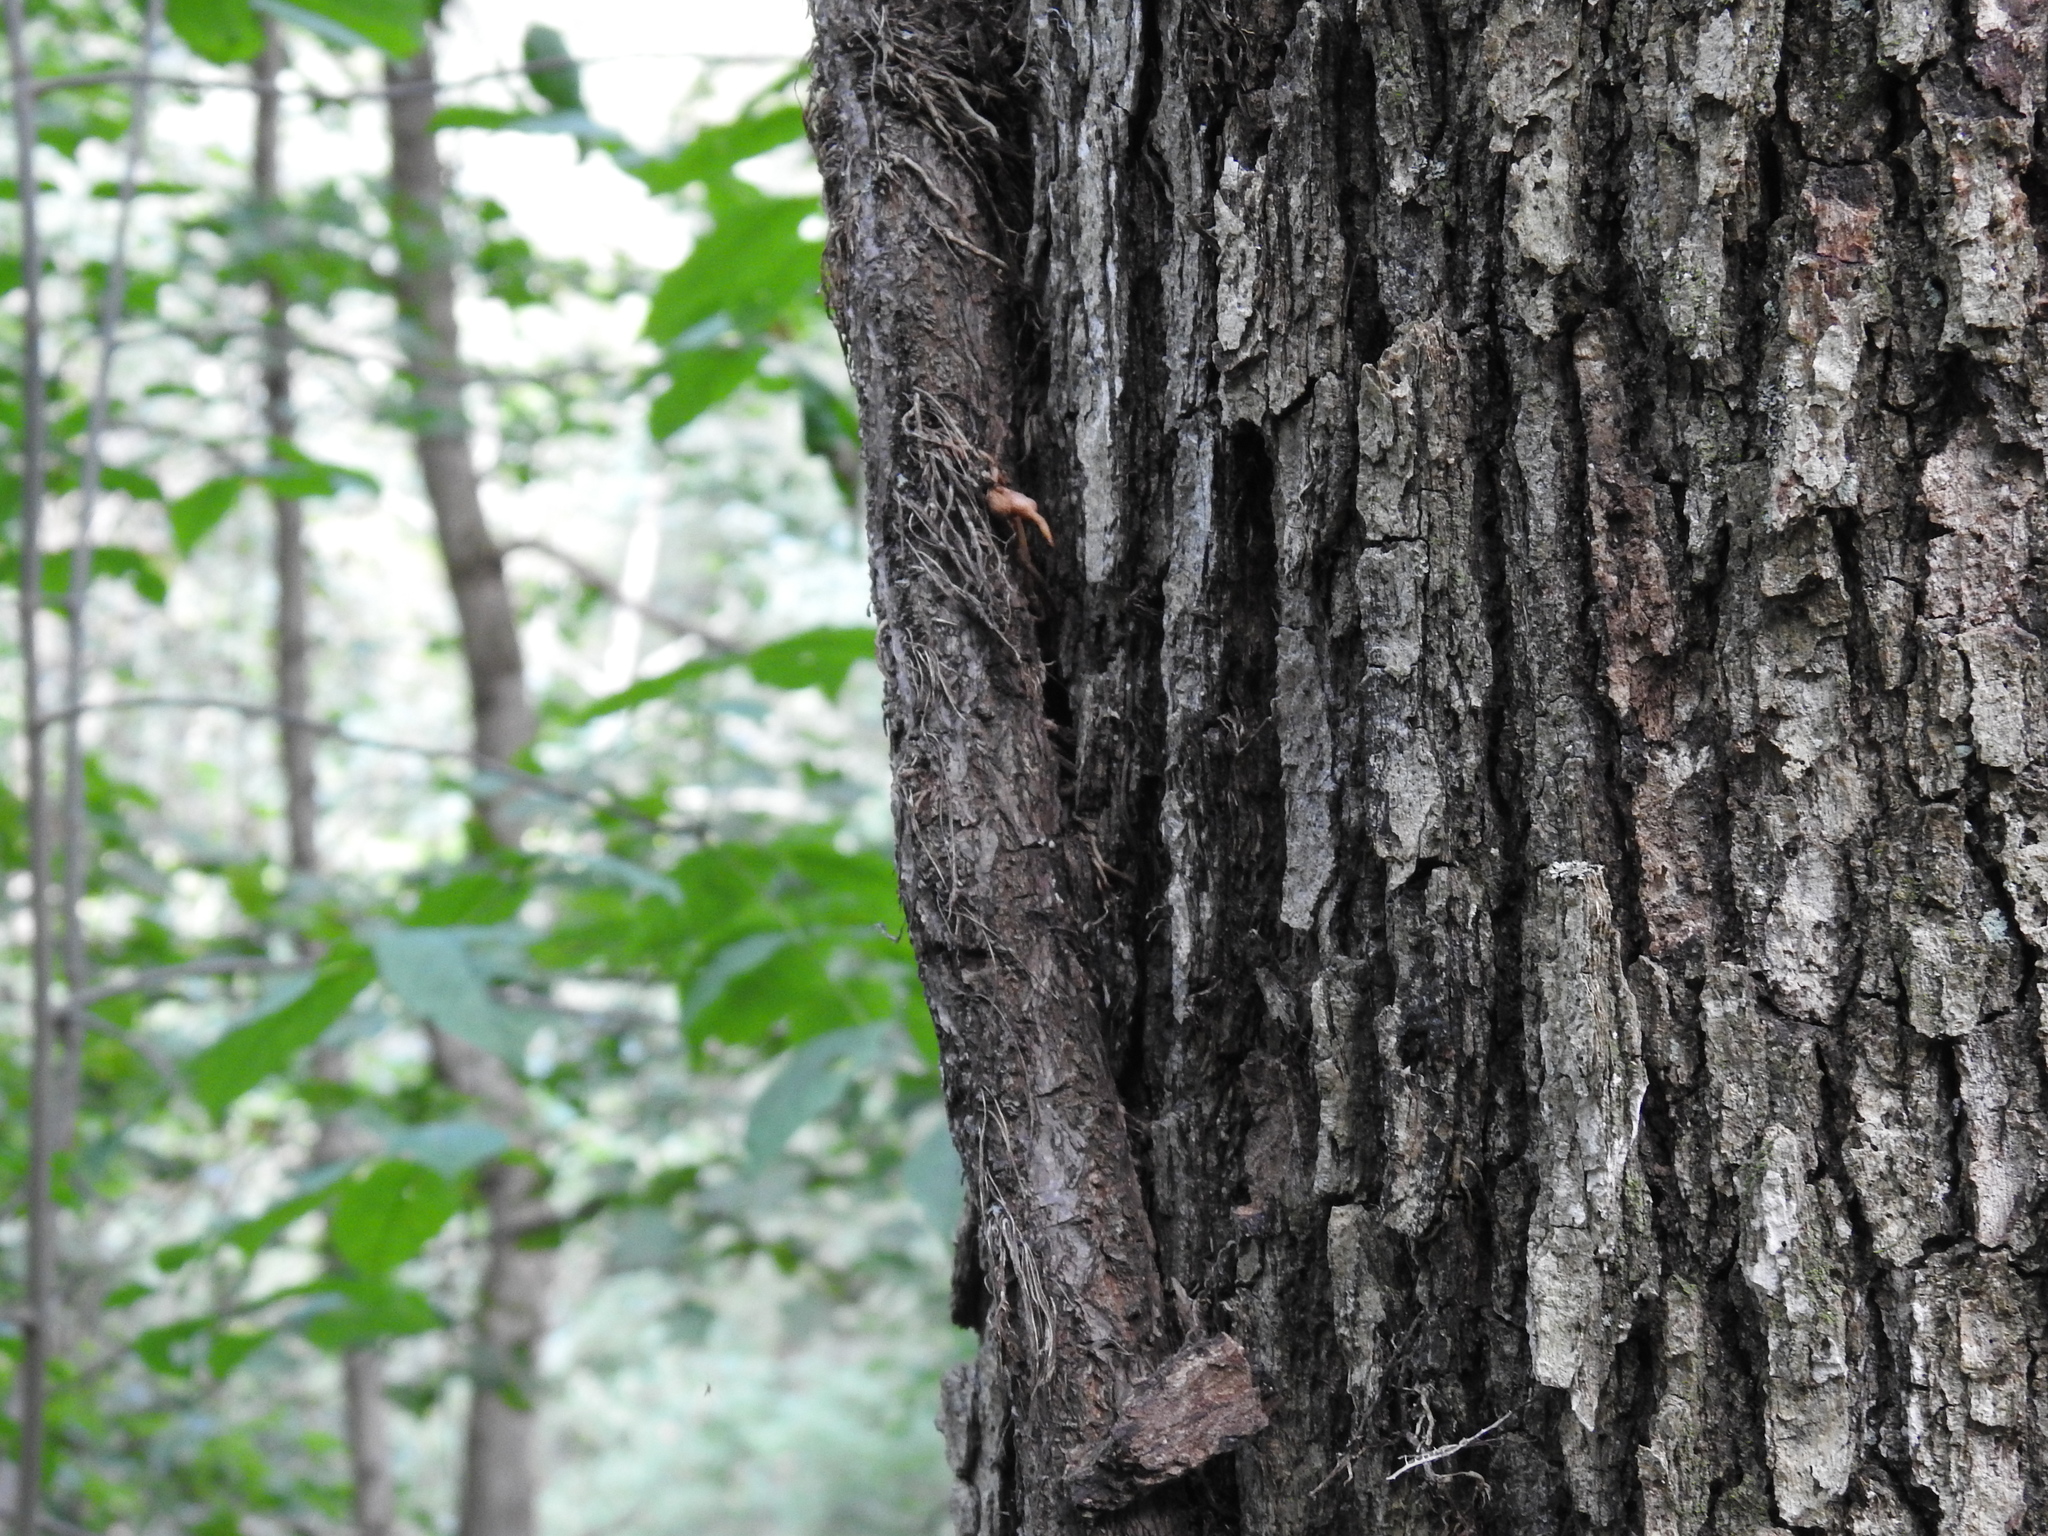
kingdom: Plantae
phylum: Tracheophyta
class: Magnoliopsida
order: Sapindales
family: Anacardiaceae
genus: Toxicodendron
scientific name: Toxicodendron radicans
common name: Poison ivy
